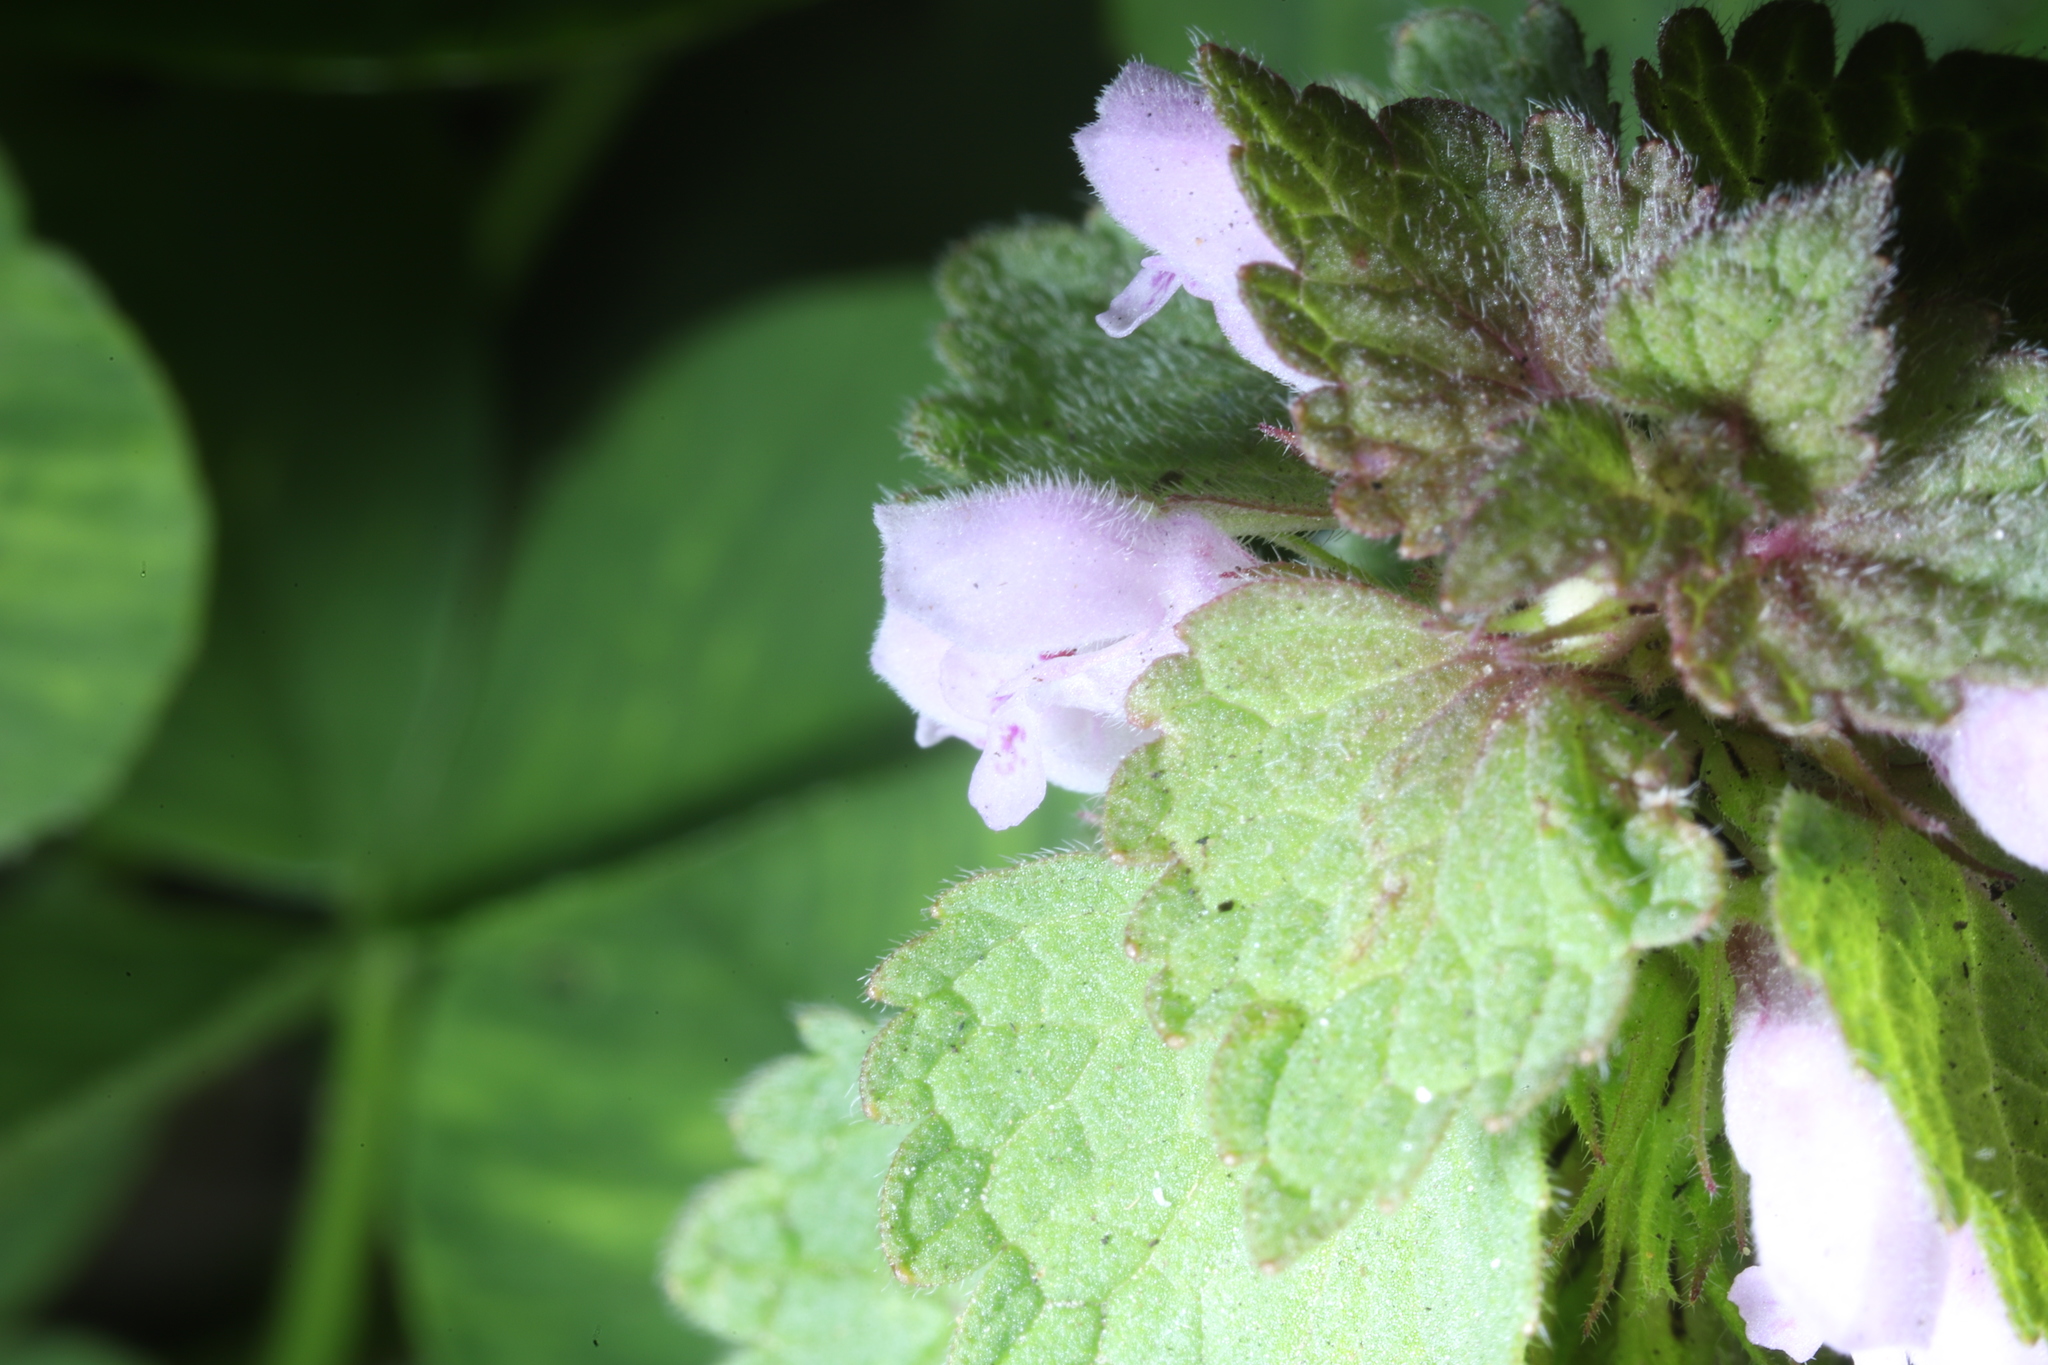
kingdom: Plantae
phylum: Tracheophyta
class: Magnoliopsida
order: Lamiales
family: Lamiaceae
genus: Lamium
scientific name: Lamium purpureum
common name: Red dead-nettle
